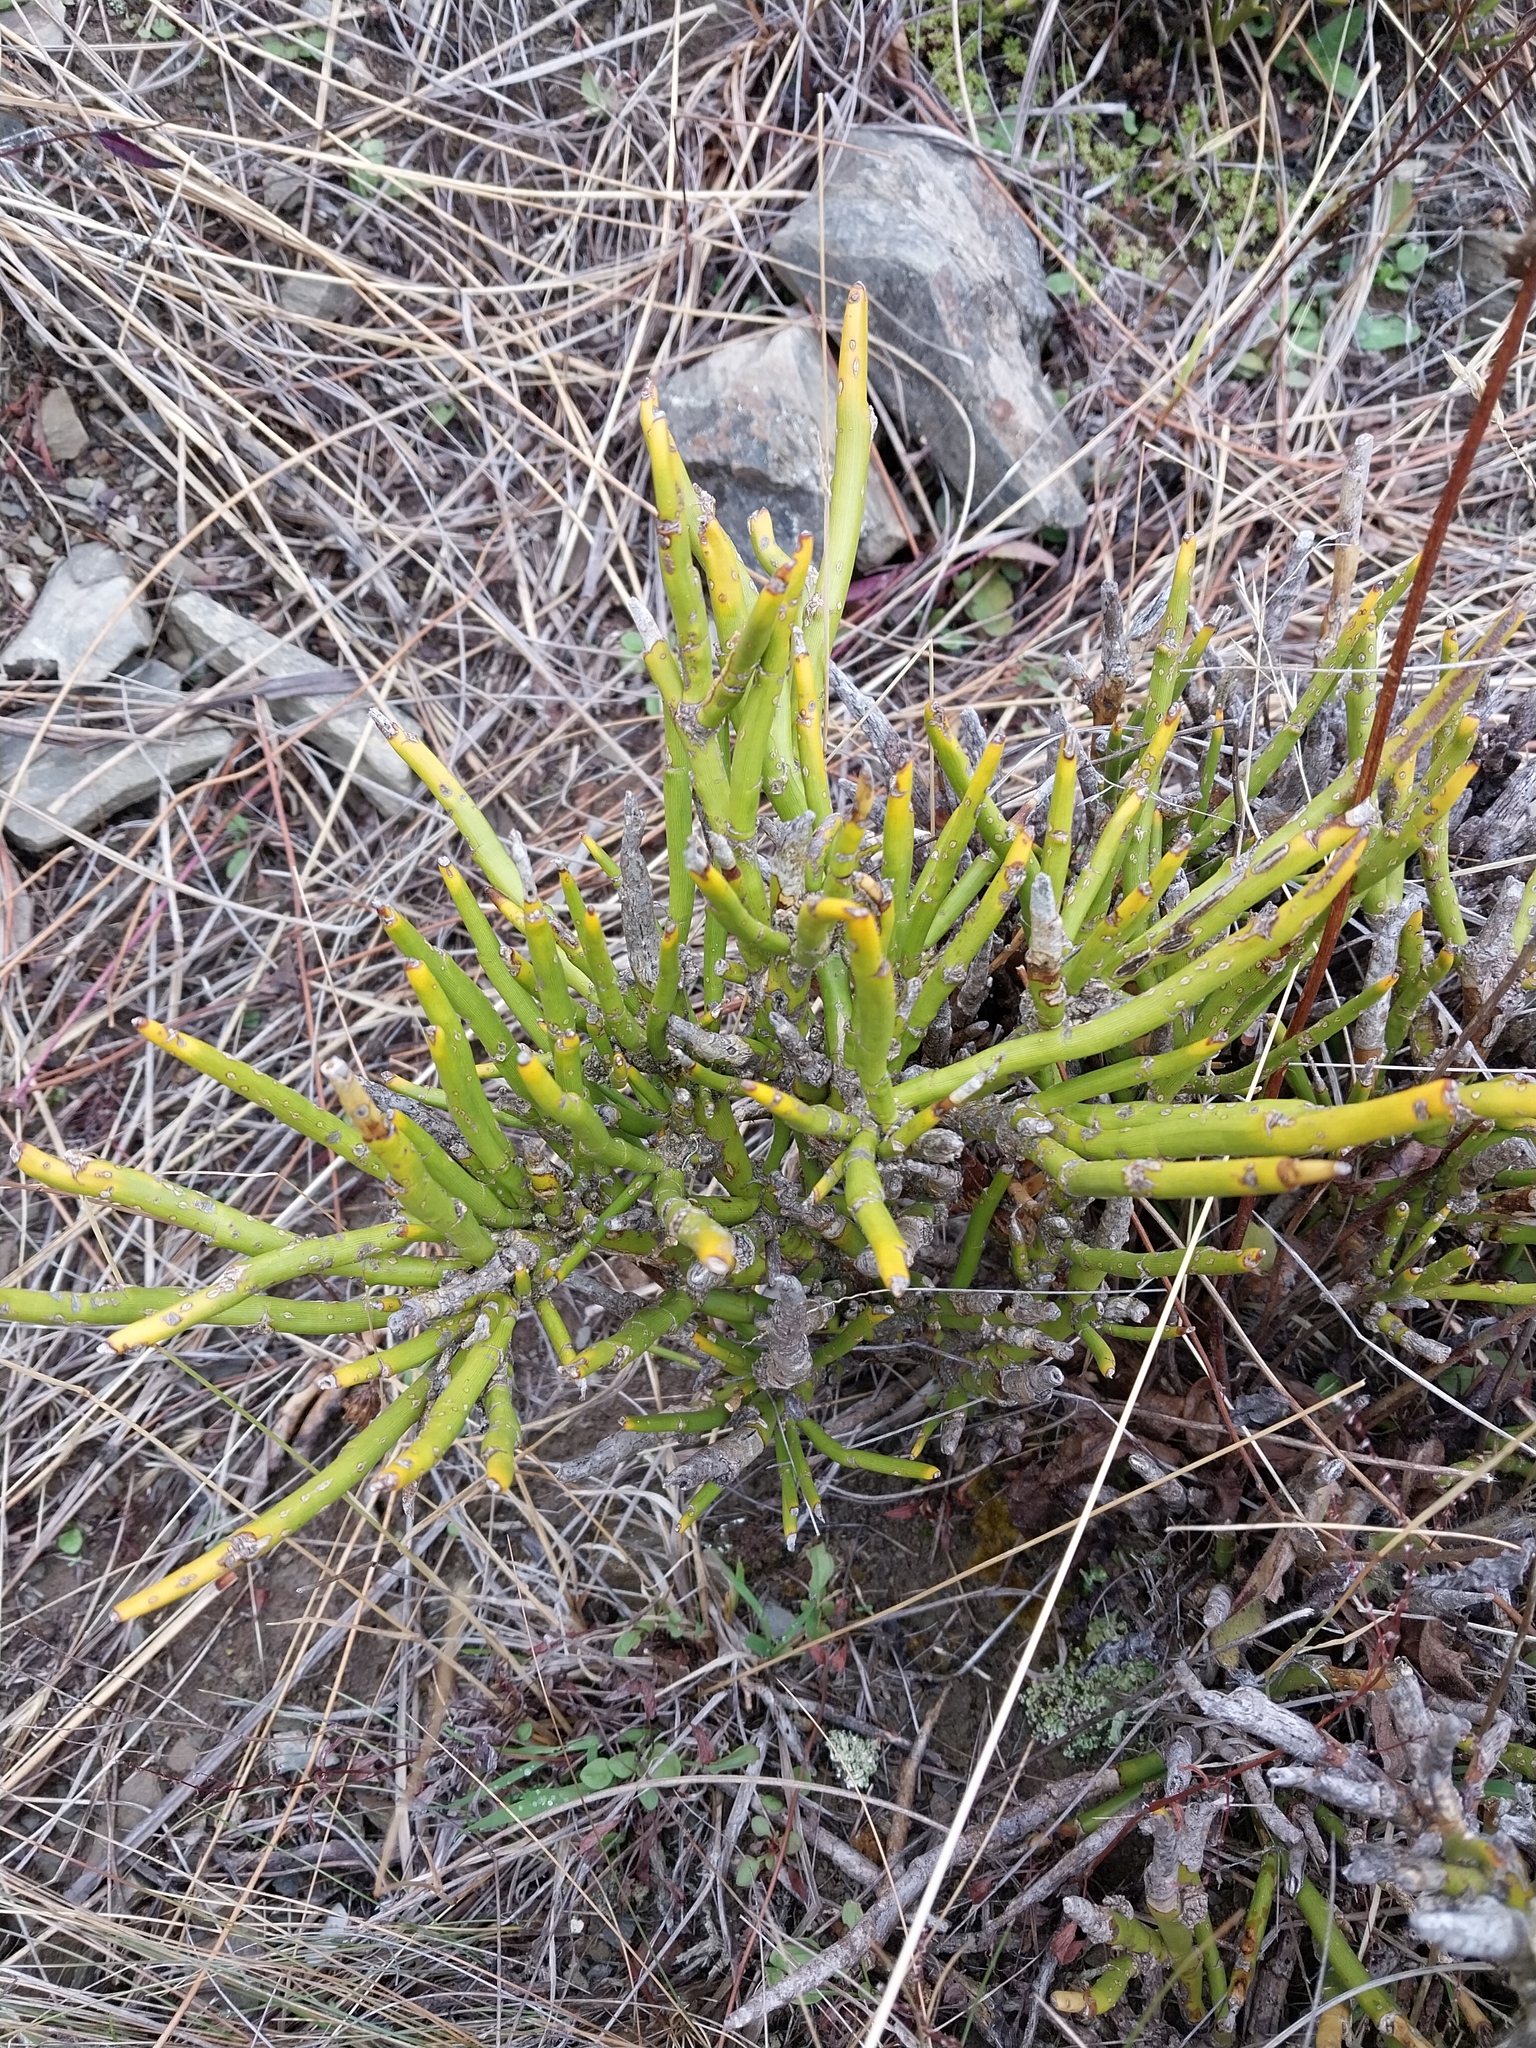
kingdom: Plantae
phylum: Tracheophyta
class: Magnoliopsida
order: Fabales
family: Fabaceae
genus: Carmichaelia
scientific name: Carmichaelia petriei
